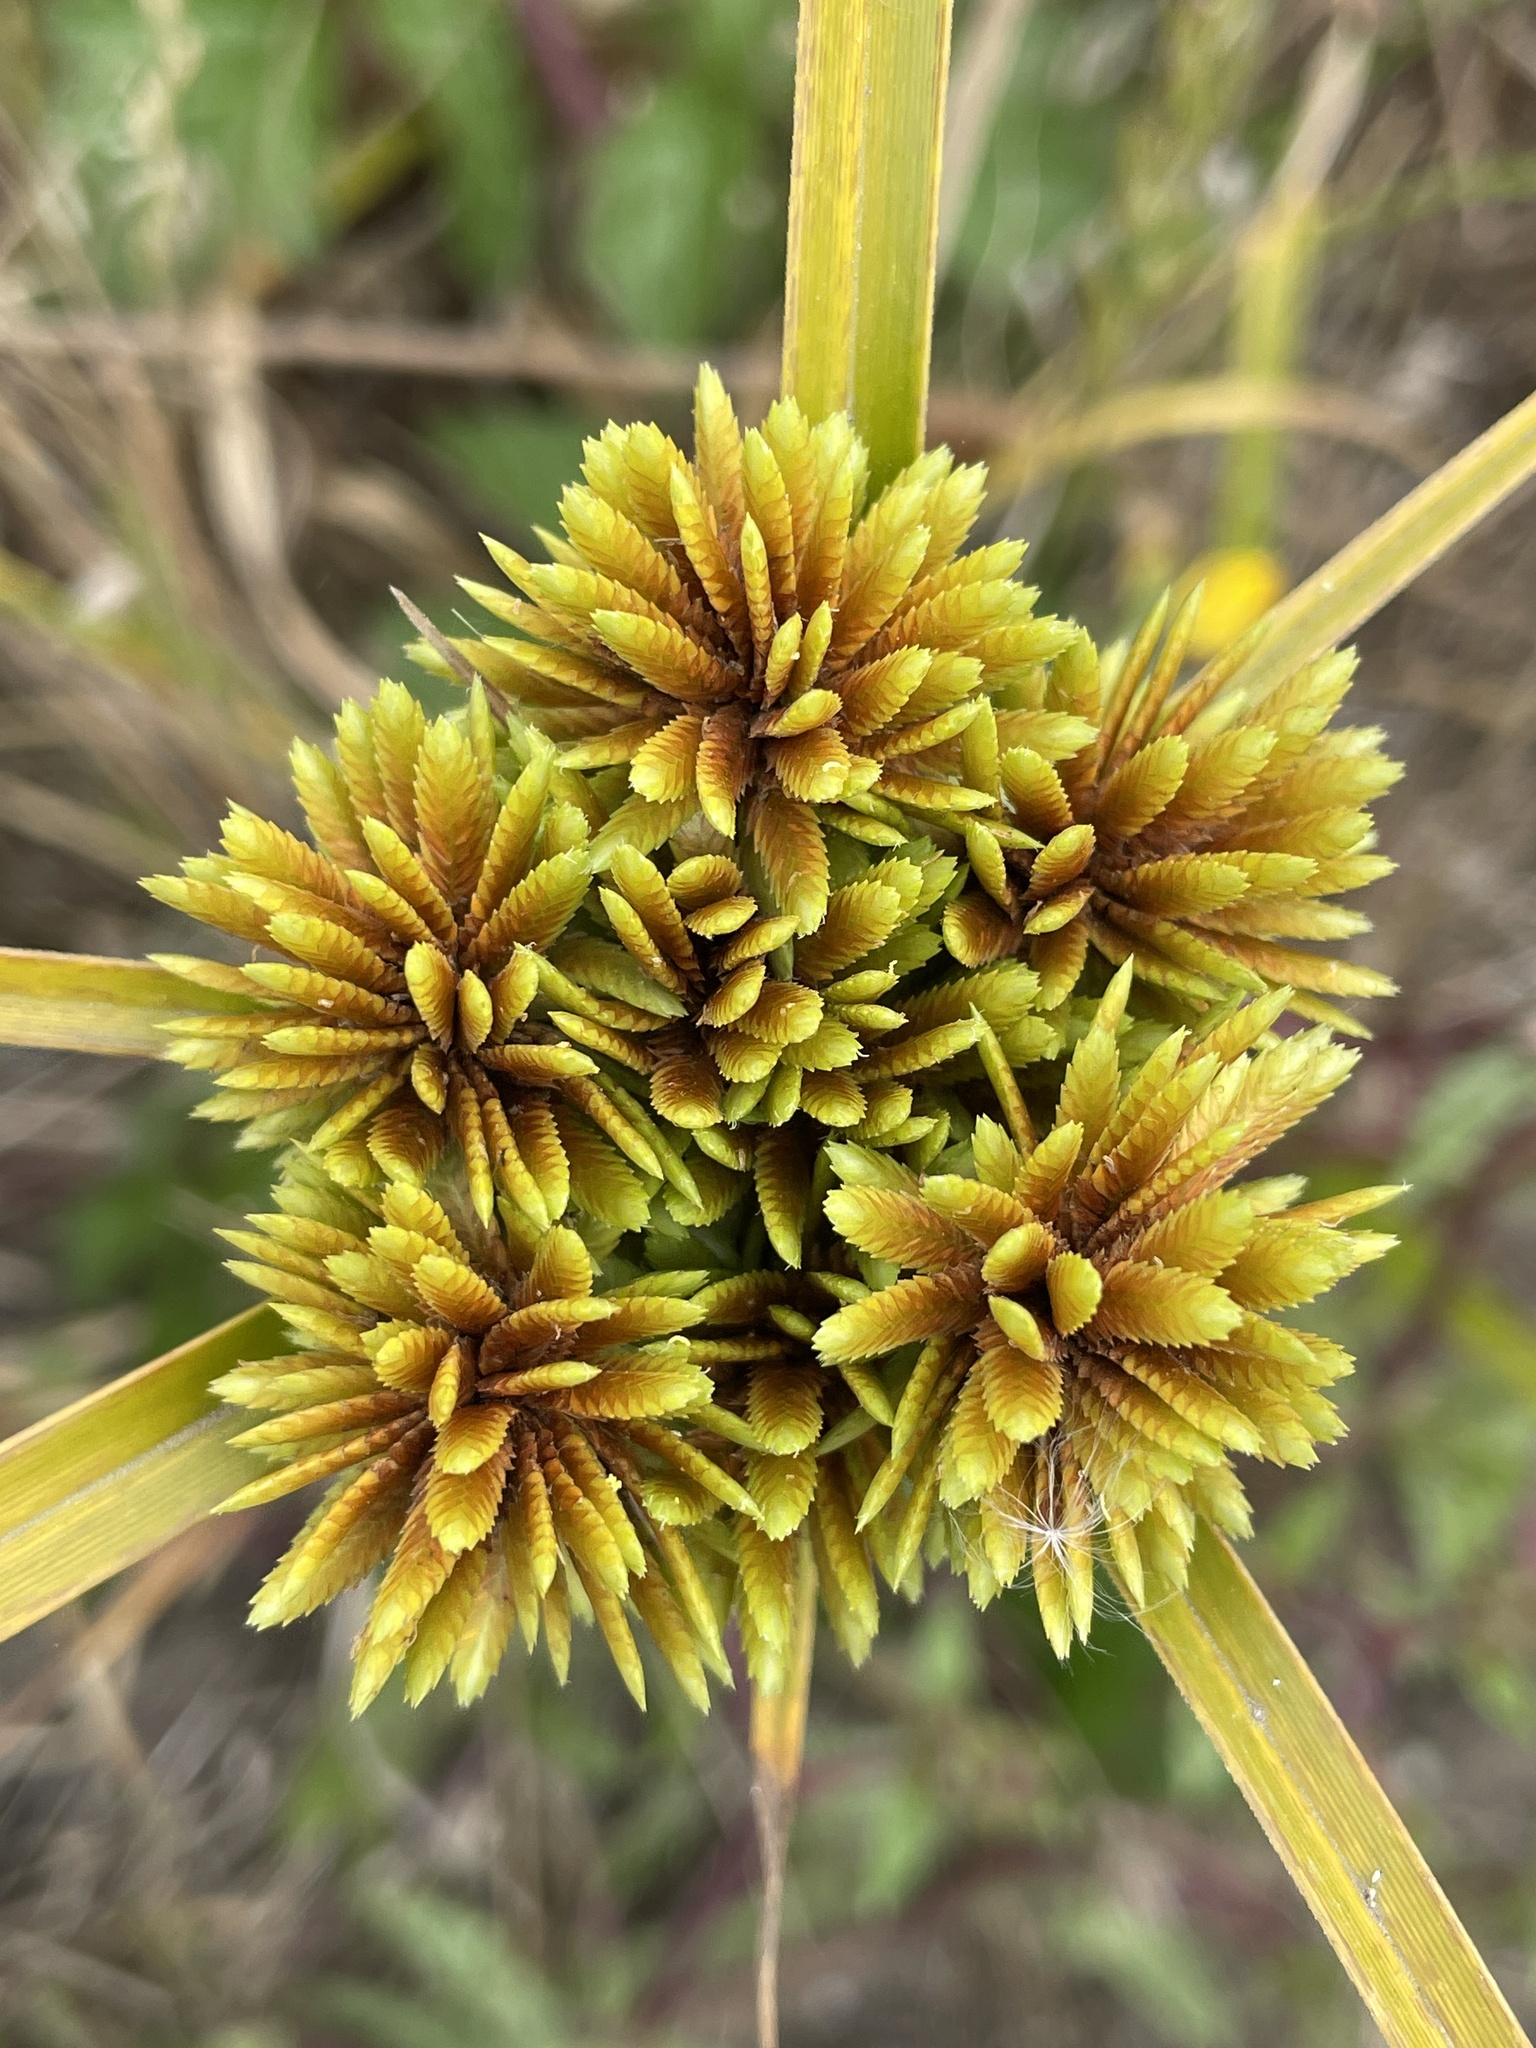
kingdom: Plantae
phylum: Tracheophyta
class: Liliopsida
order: Poales
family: Cyperaceae
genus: Cyperus
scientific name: Cyperus eragrostis
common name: Tall flatsedge
